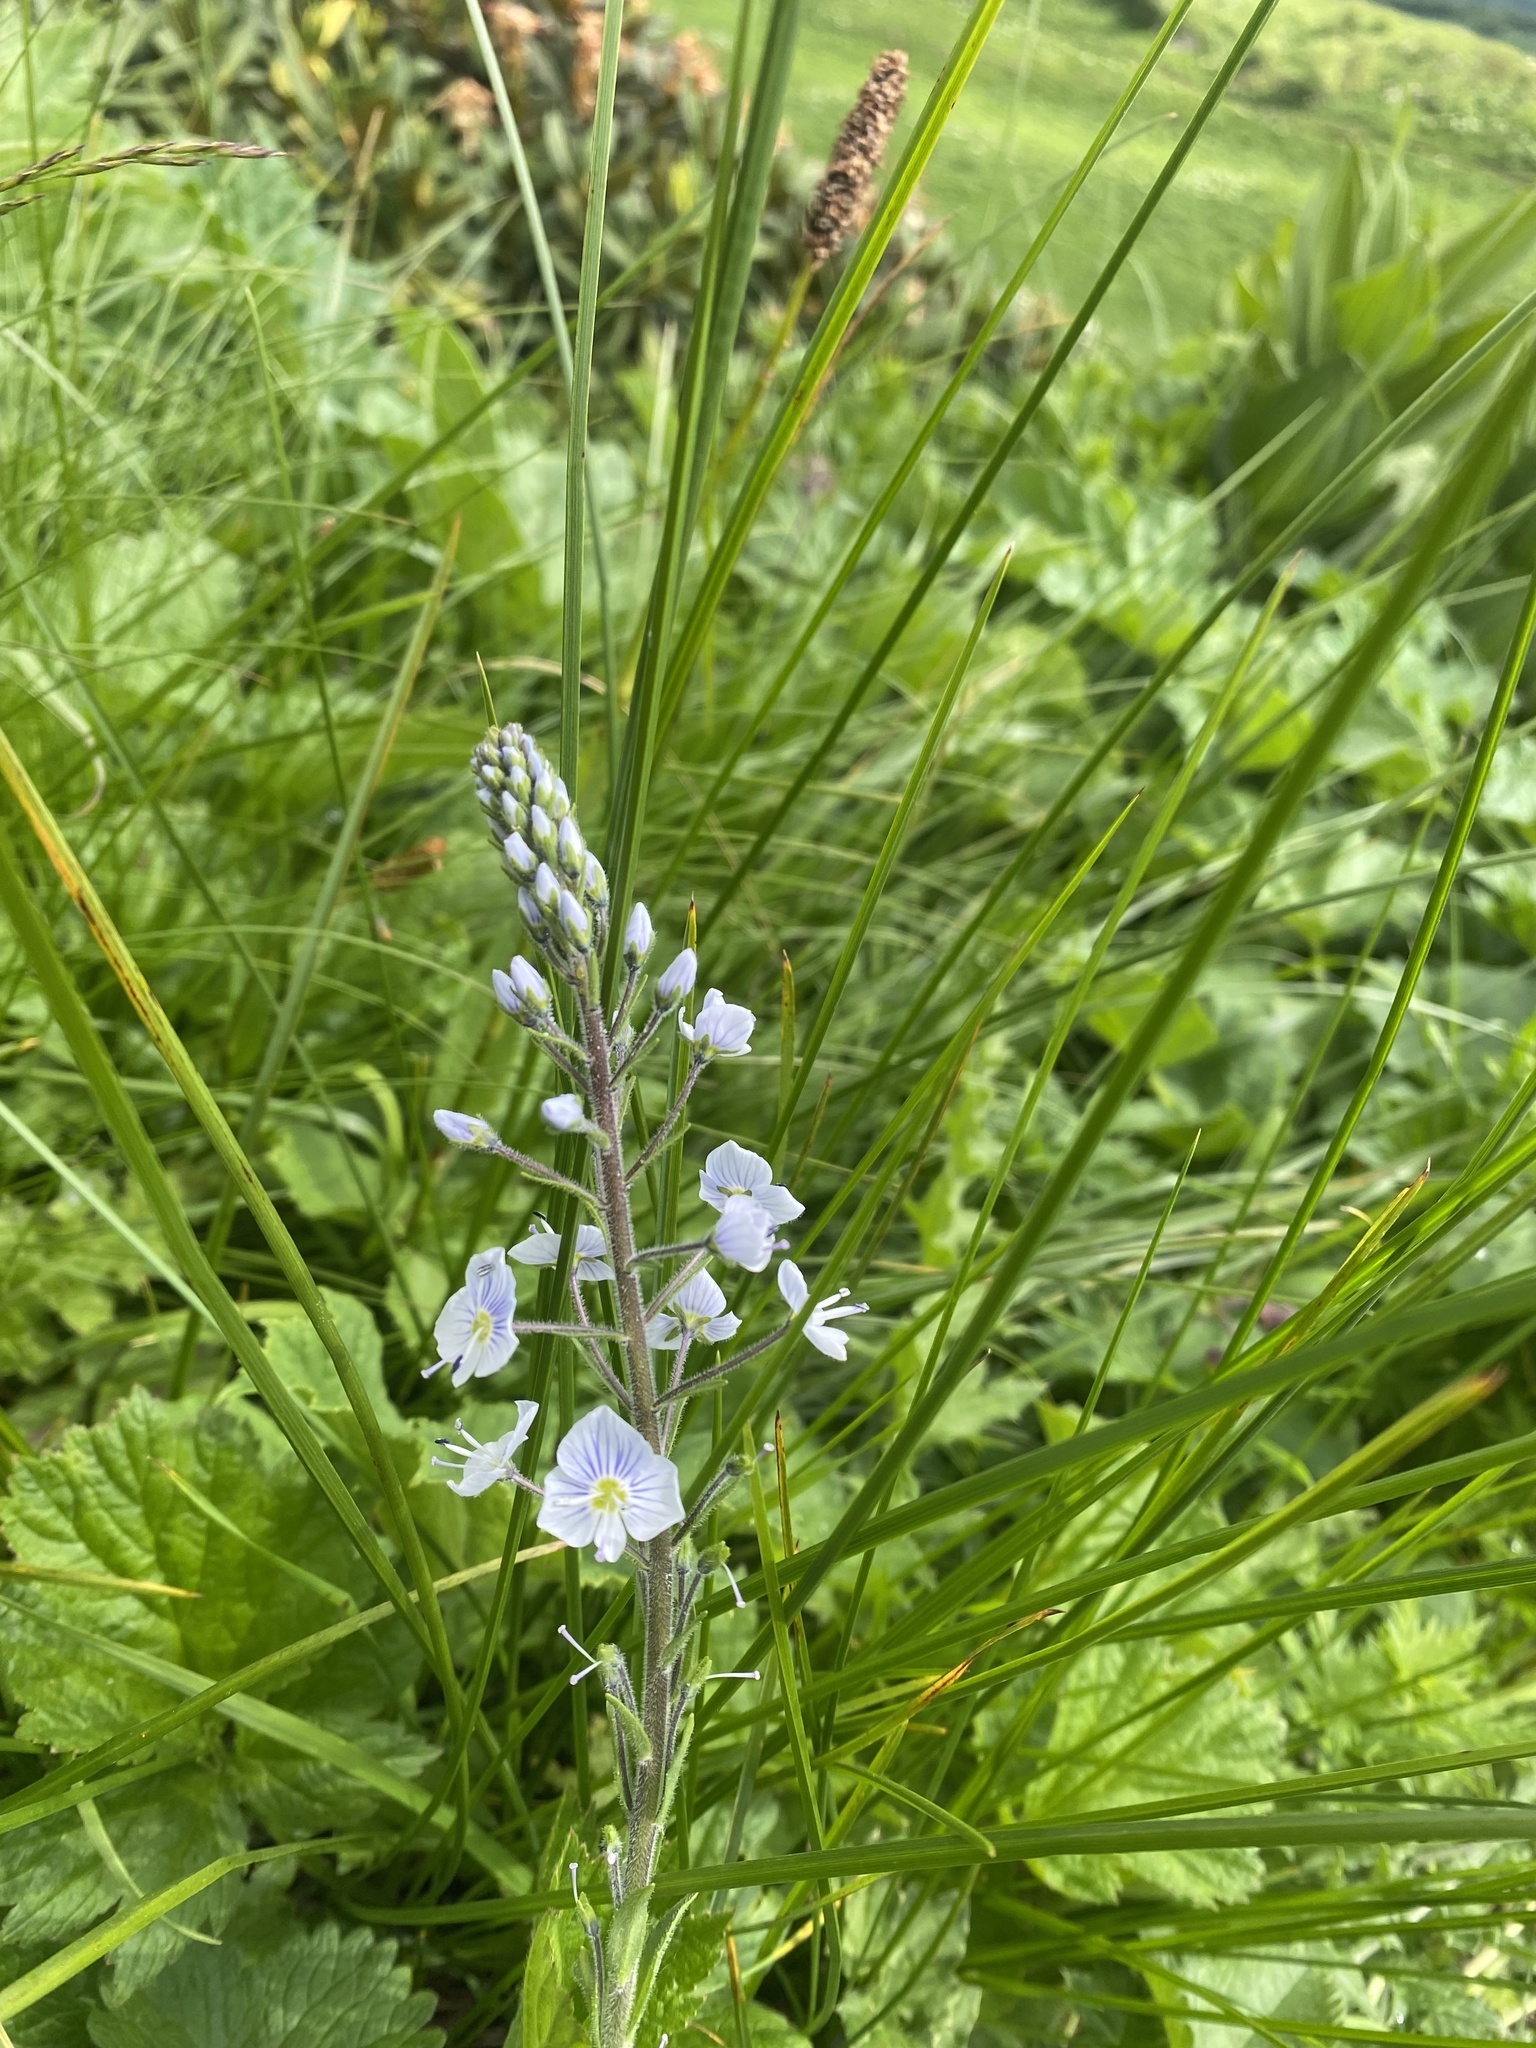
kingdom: Plantae
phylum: Tracheophyta
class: Magnoliopsida
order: Lamiales
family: Plantaginaceae
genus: Veronica
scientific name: Veronica gentianoides
